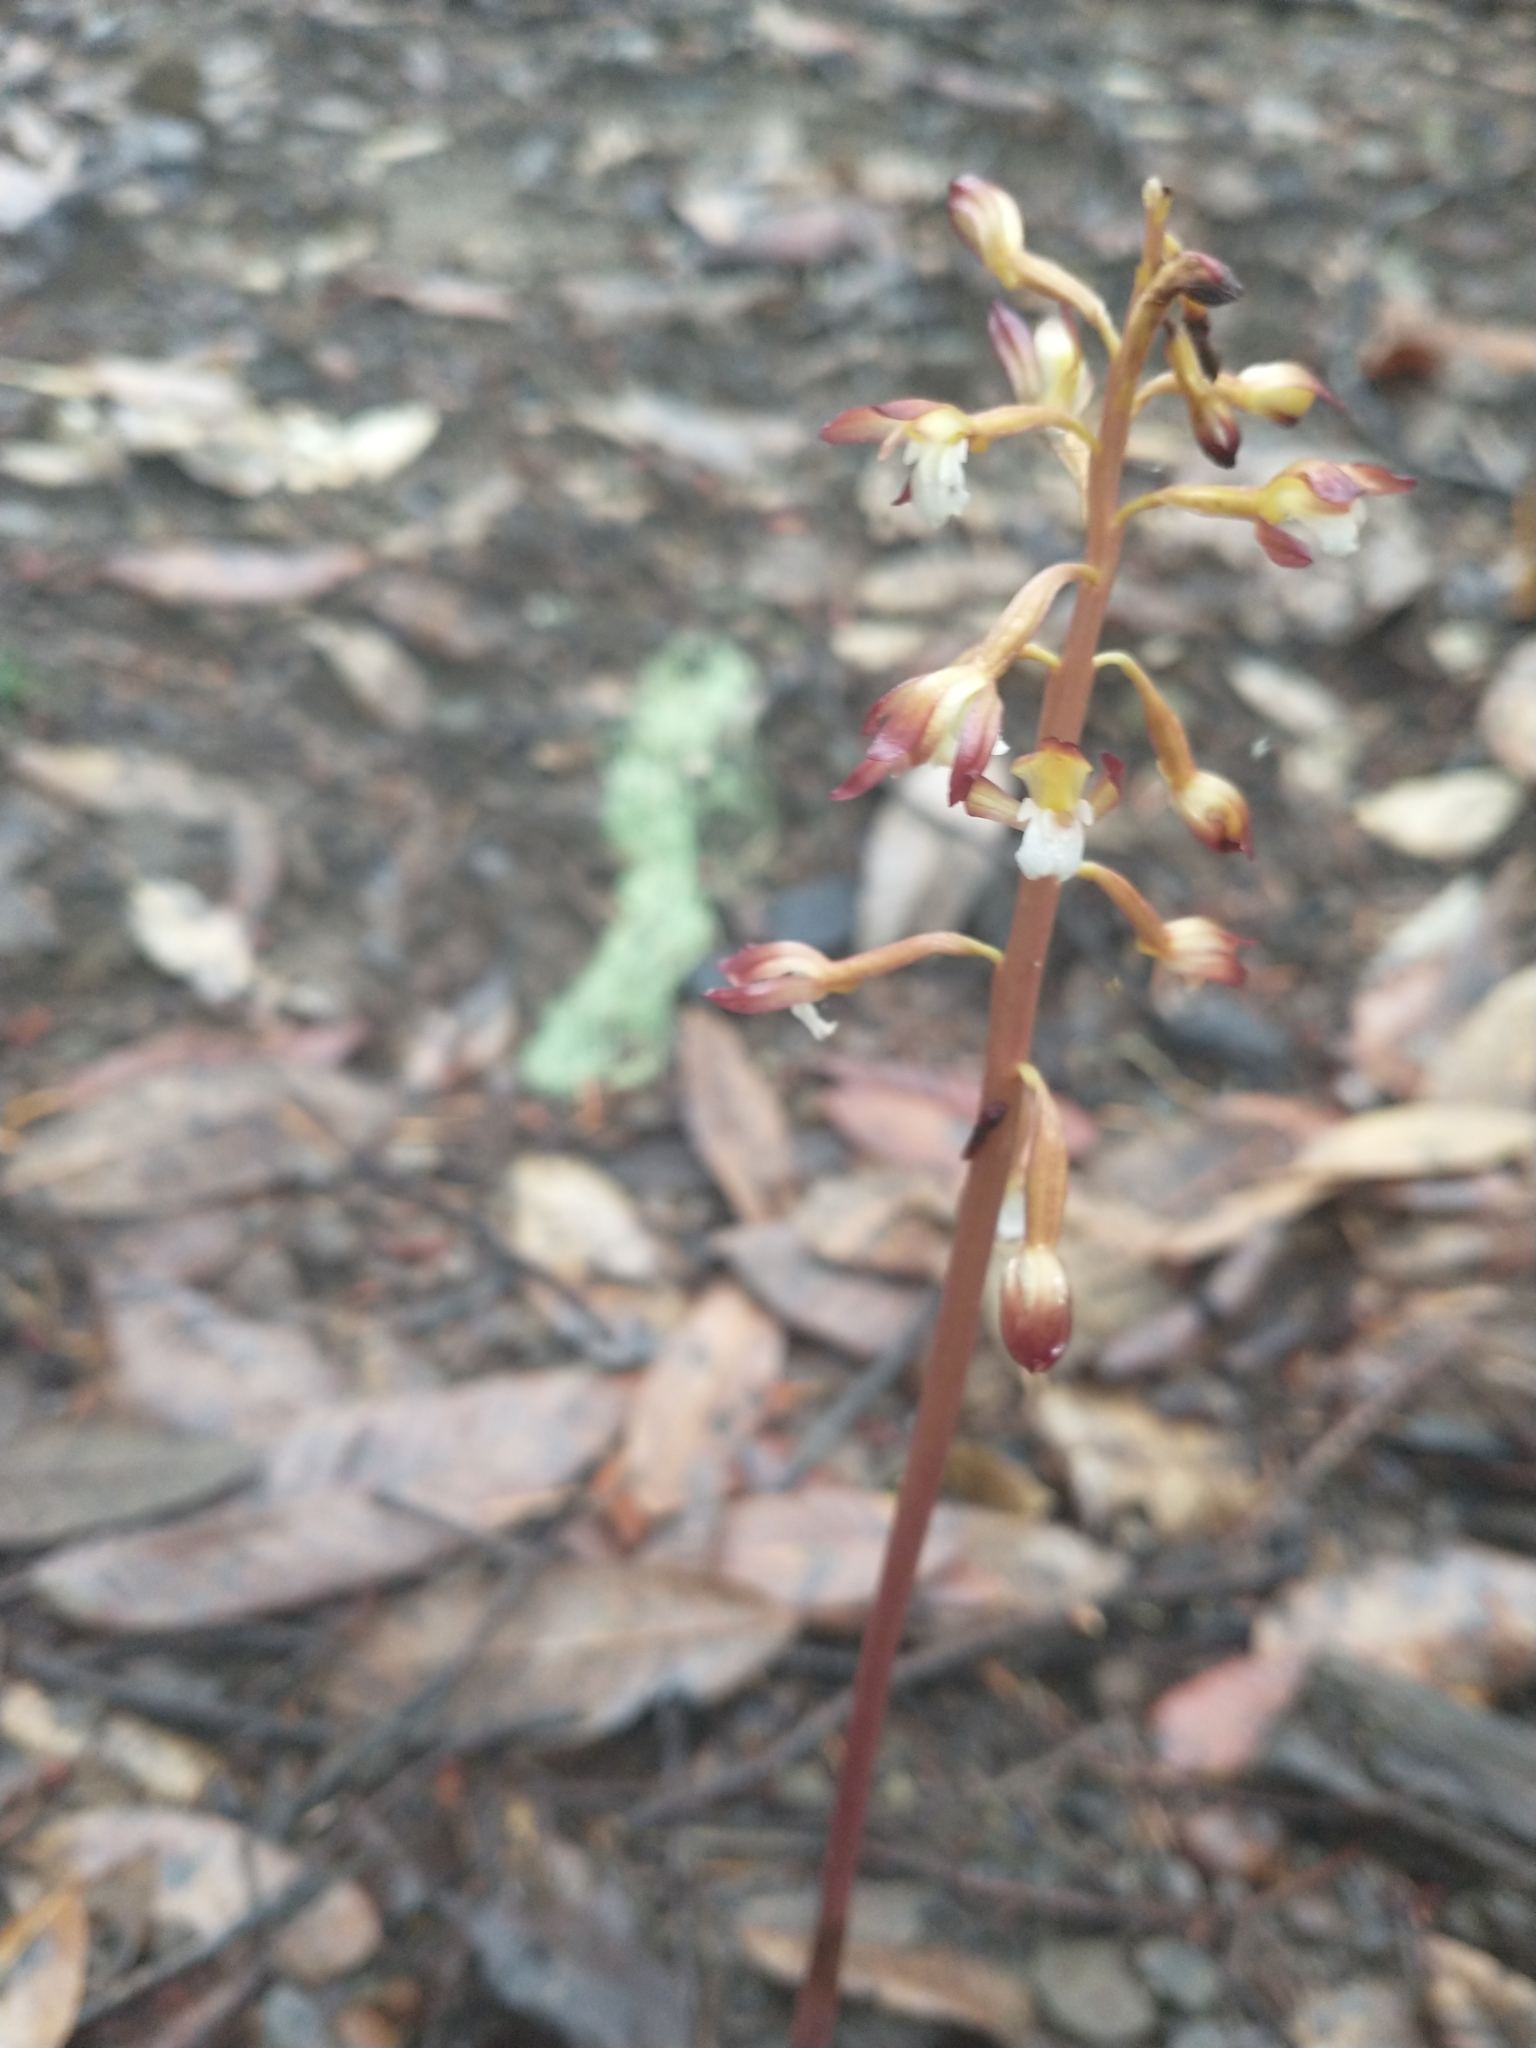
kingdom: Plantae
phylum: Tracheophyta
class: Liliopsida
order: Asparagales
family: Orchidaceae
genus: Corallorhiza
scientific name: Corallorhiza maculata
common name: Spotted coralroot
